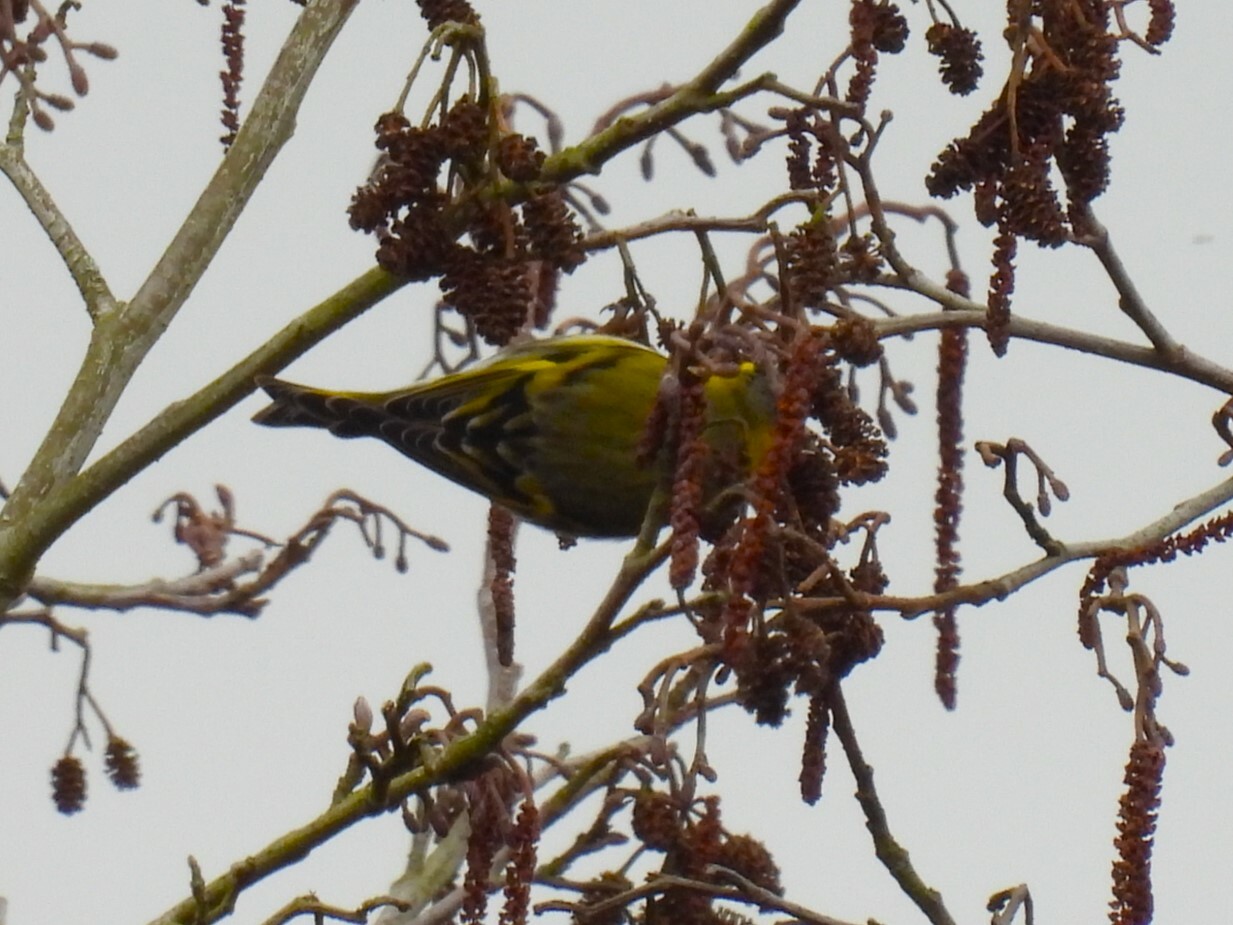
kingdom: Animalia
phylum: Chordata
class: Aves
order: Passeriformes
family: Fringillidae
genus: Spinus
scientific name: Spinus spinus
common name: Eurasian siskin
